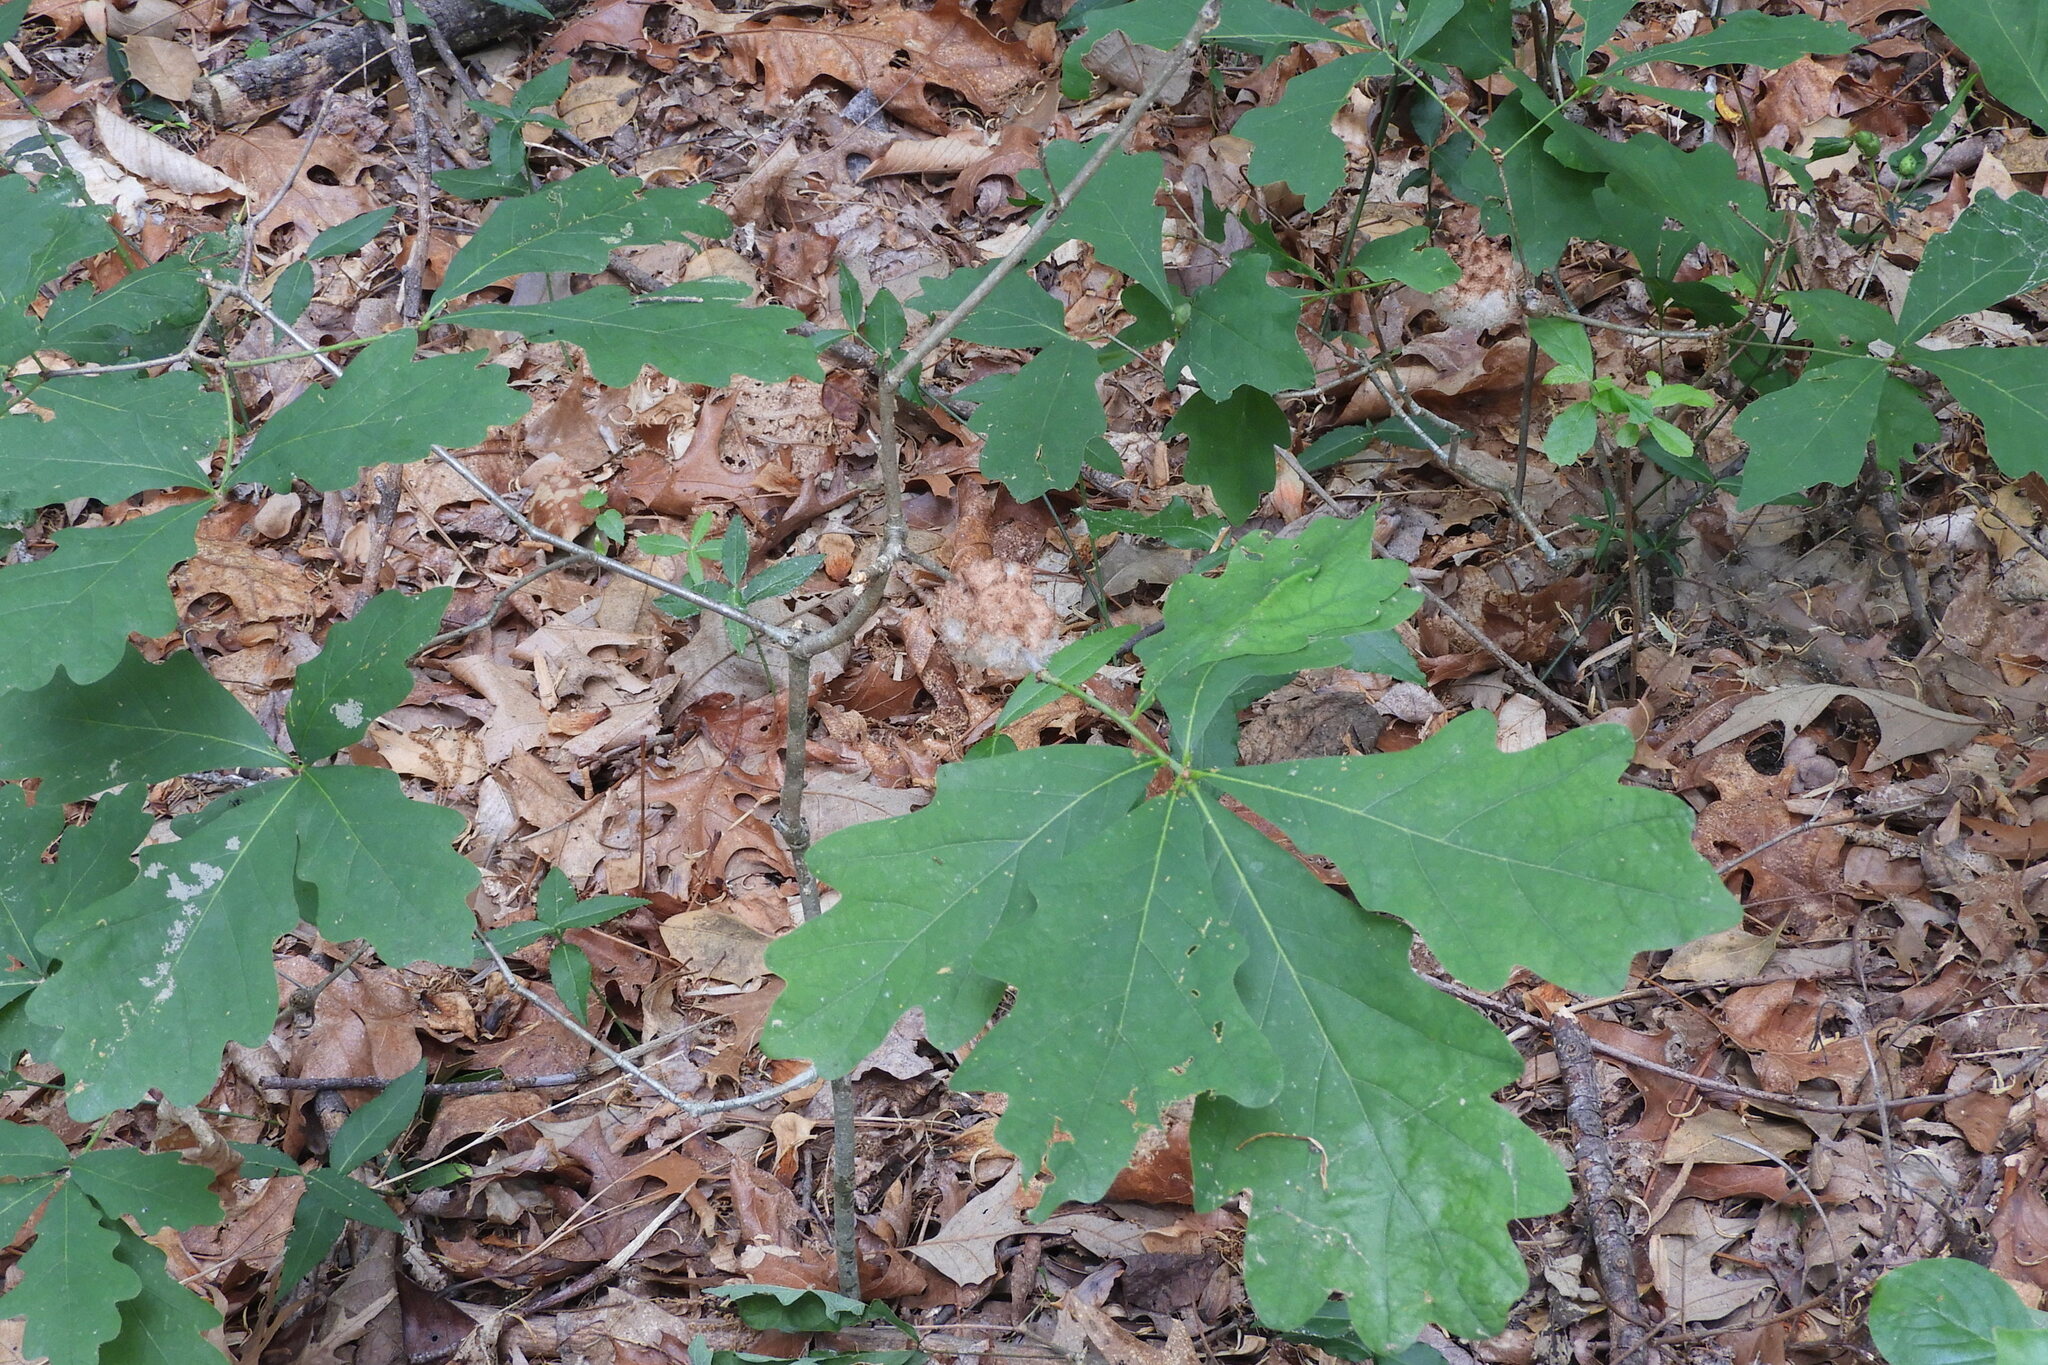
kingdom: Animalia
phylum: Arthropoda
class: Insecta
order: Hymenoptera
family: Cynipidae
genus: Callirhytis
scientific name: Callirhytis
